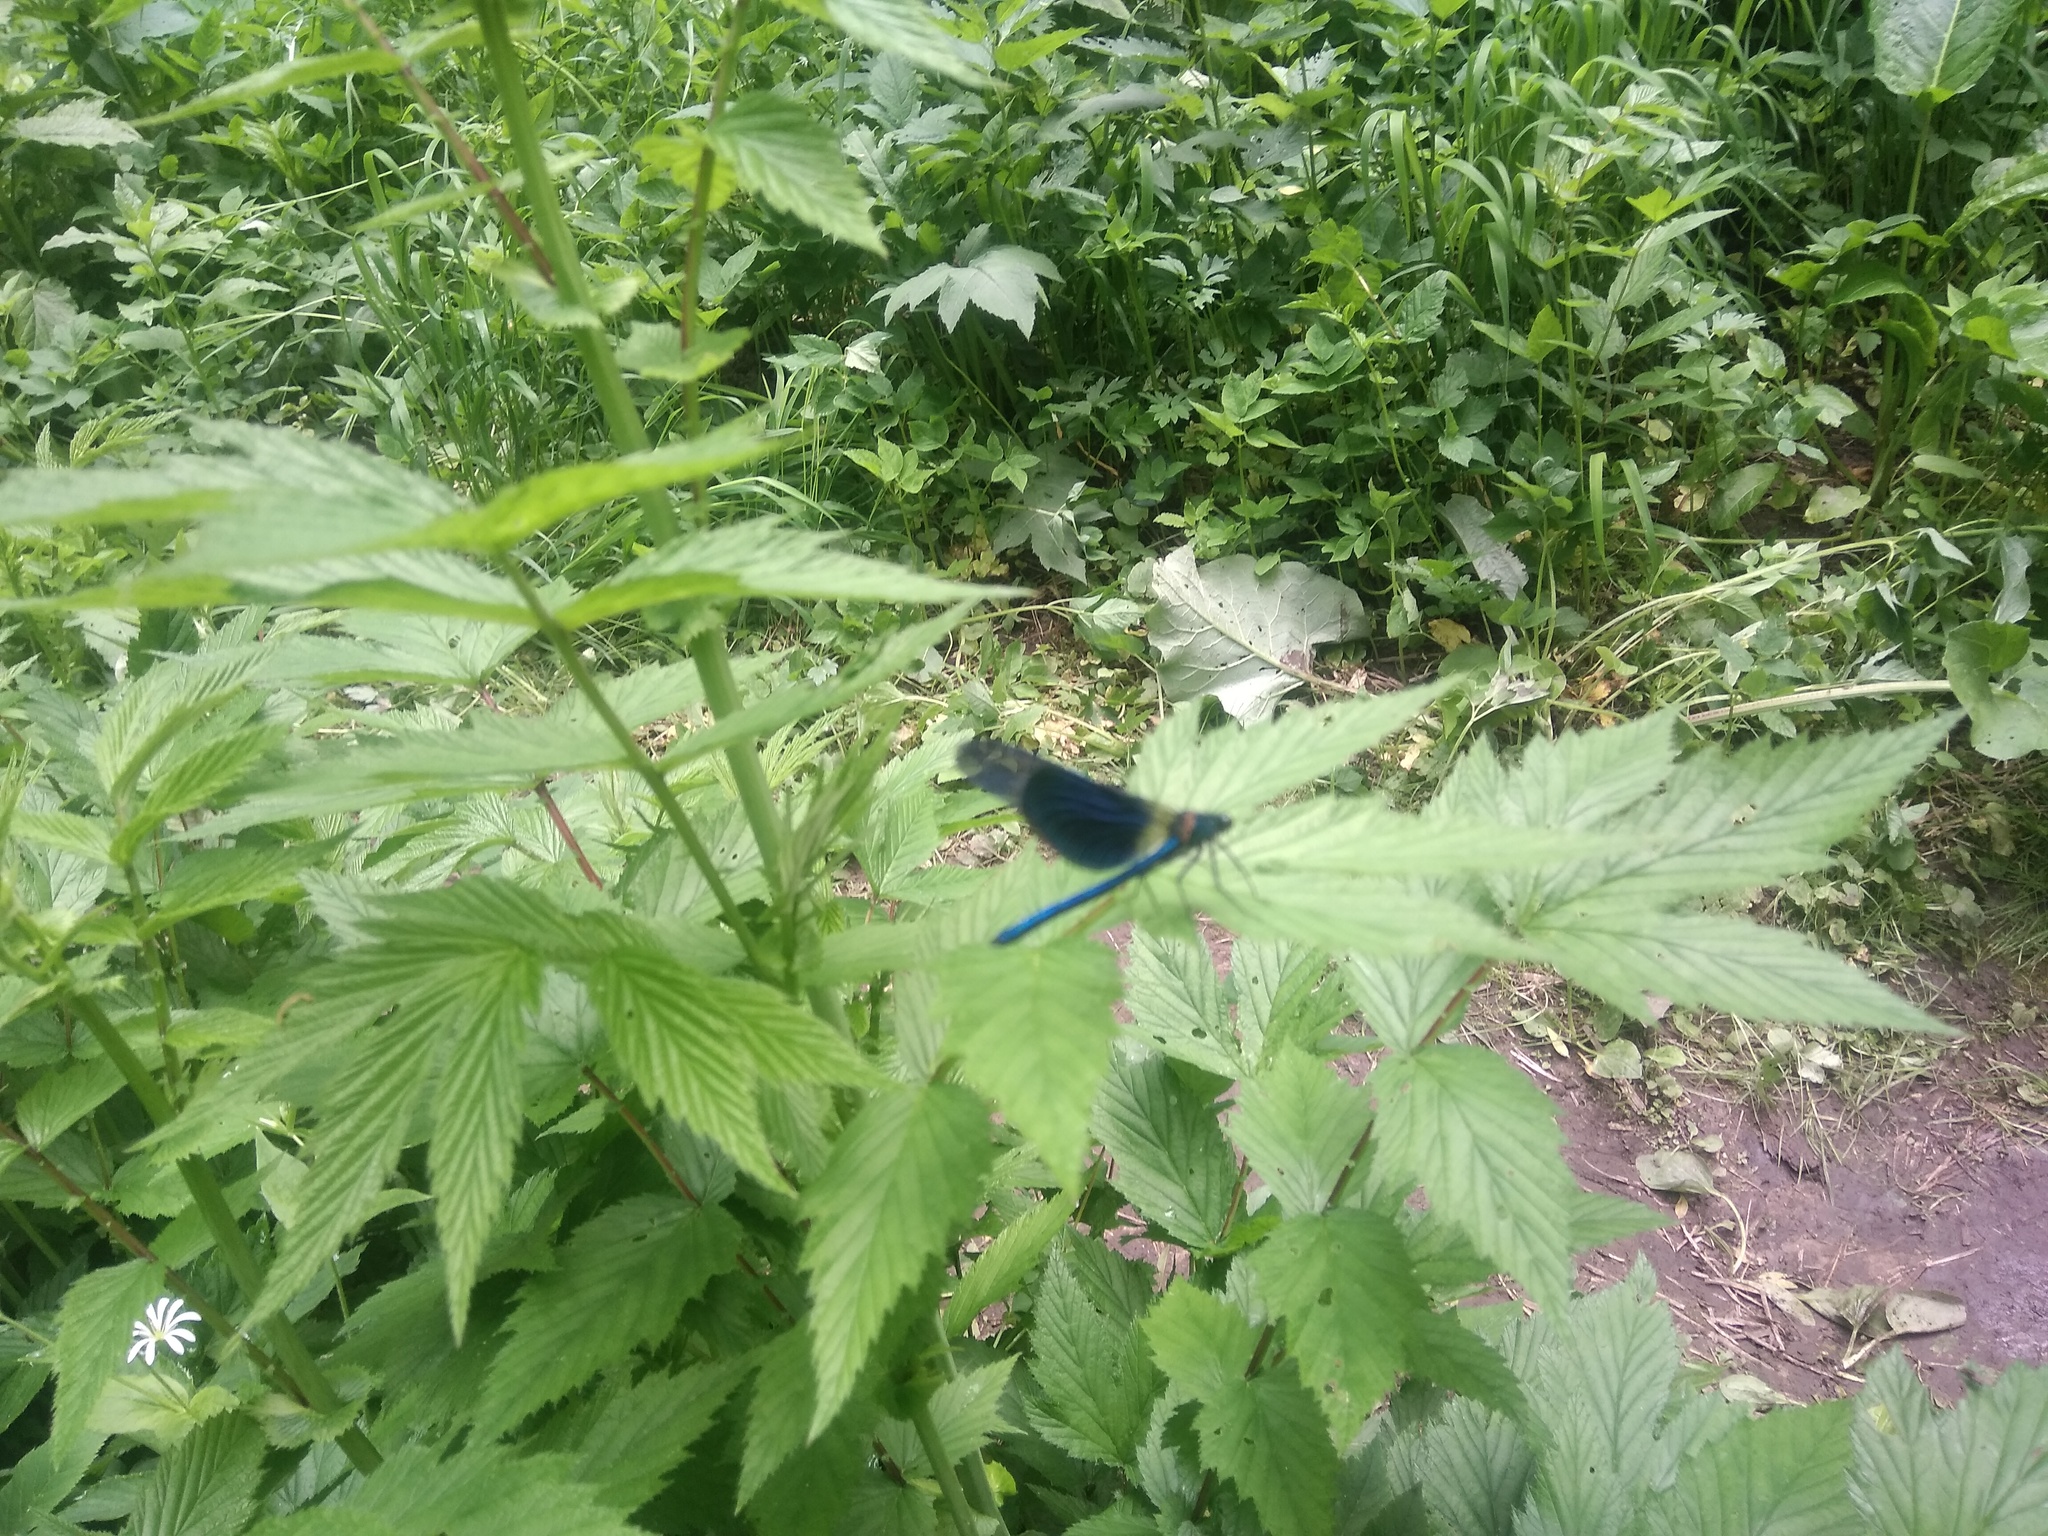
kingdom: Animalia
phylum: Arthropoda
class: Insecta
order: Odonata
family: Calopterygidae
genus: Calopteryx
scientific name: Calopteryx splendens
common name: Banded demoiselle
